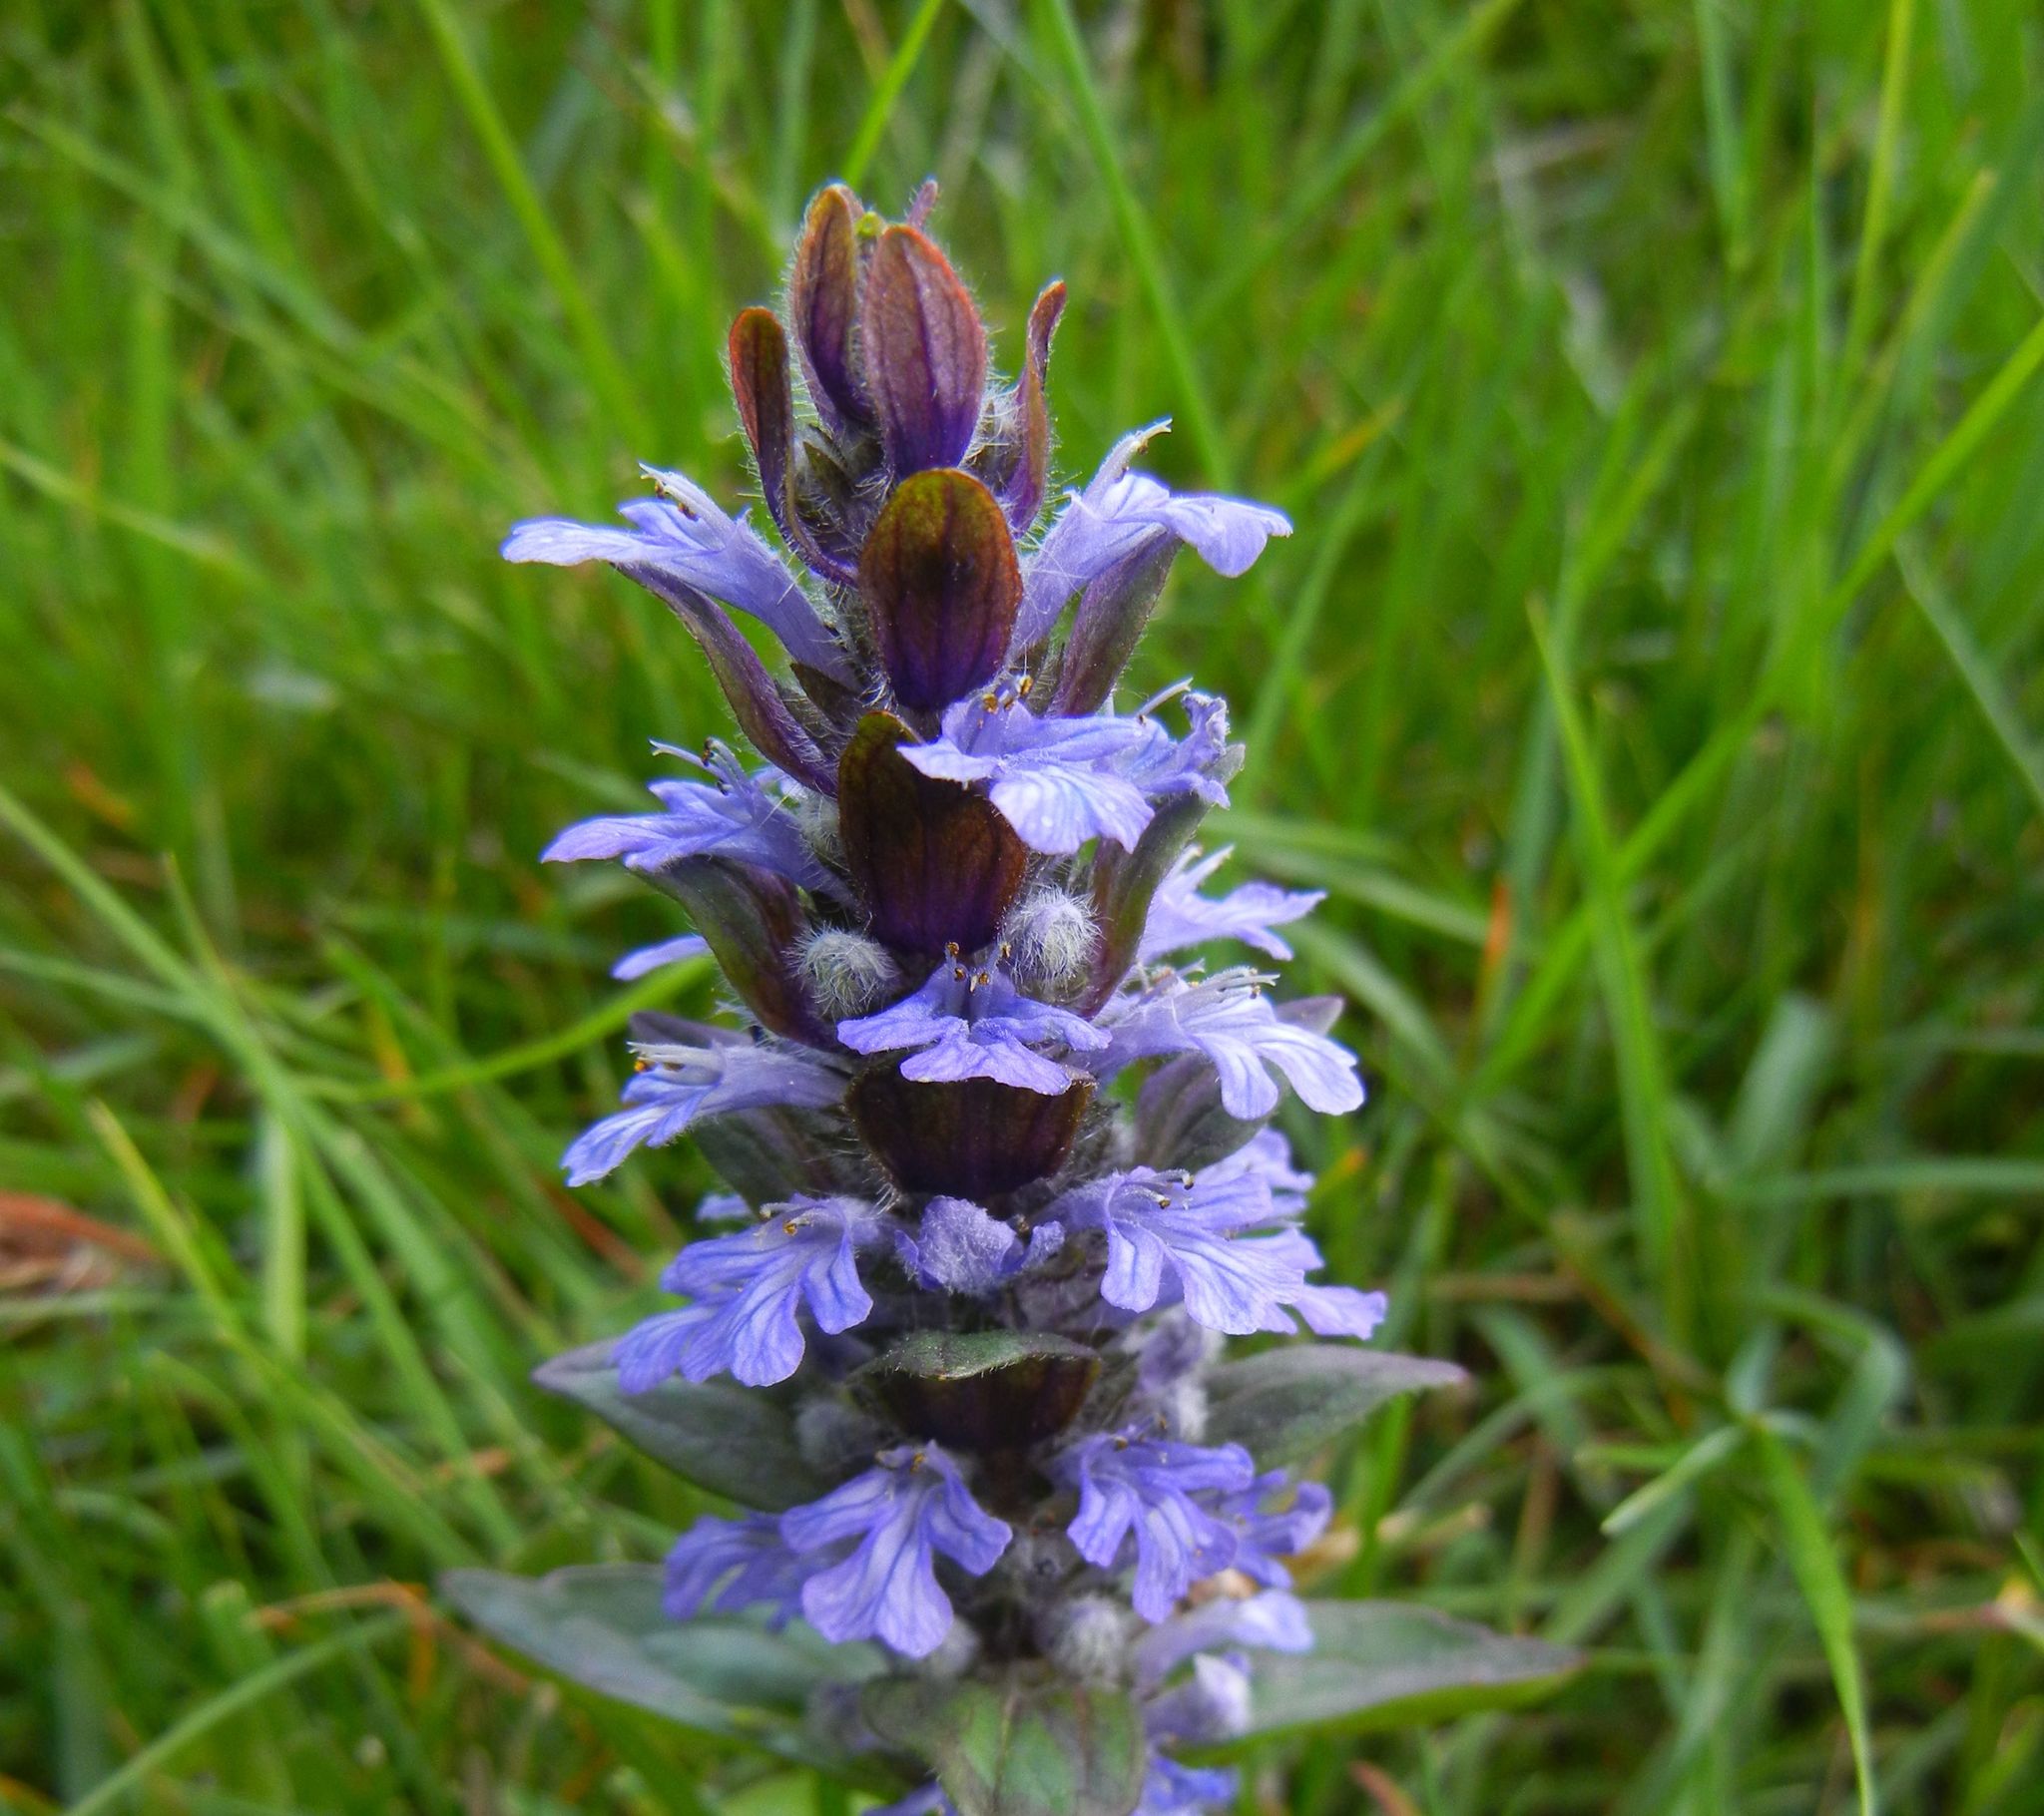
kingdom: Plantae
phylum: Tracheophyta
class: Magnoliopsida
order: Lamiales
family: Lamiaceae
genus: Ajuga
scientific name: Ajuga reptans
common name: Bugle
